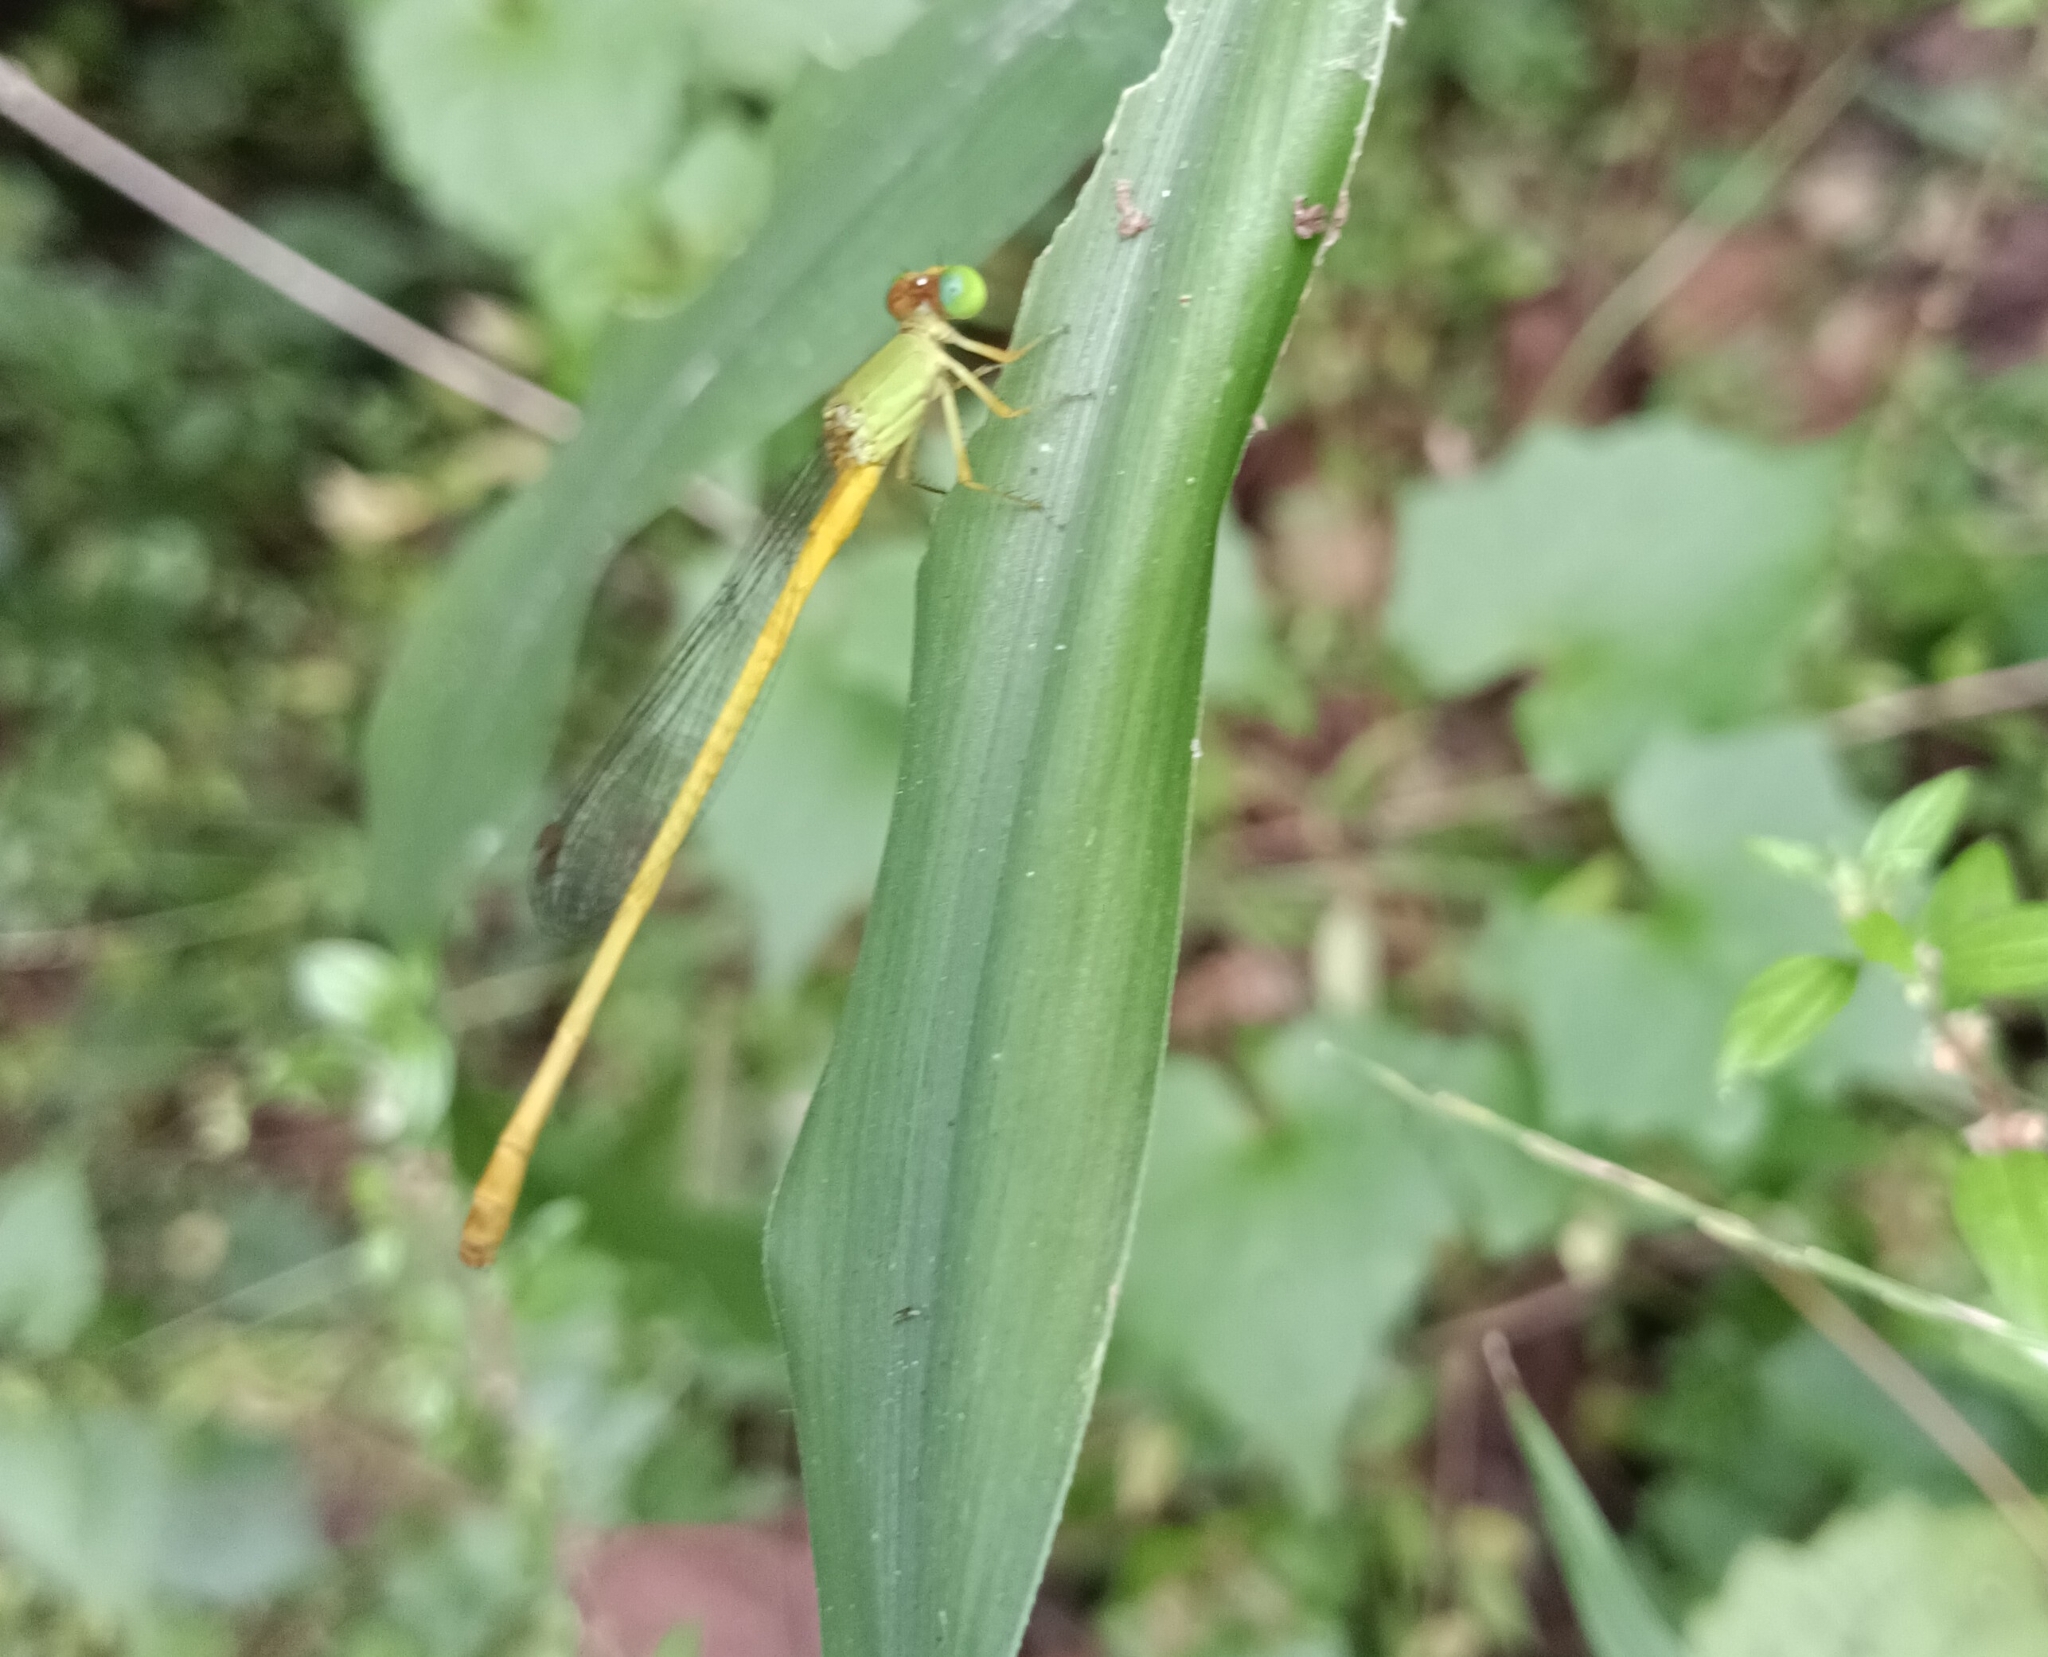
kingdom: Animalia
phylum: Arthropoda
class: Insecta
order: Odonata
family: Coenagrionidae
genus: Ceriagrion
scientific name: Ceriagrion coromandelianum
